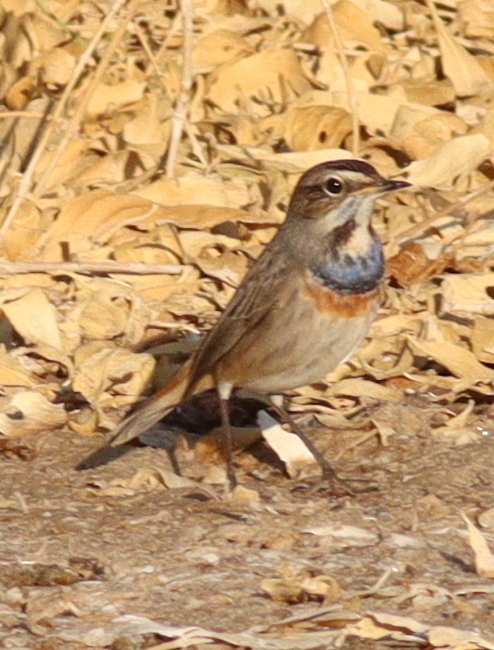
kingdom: Animalia
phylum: Chordata
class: Aves
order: Passeriformes
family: Muscicapidae
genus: Luscinia
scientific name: Luscinia svecica
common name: Bluethroat
